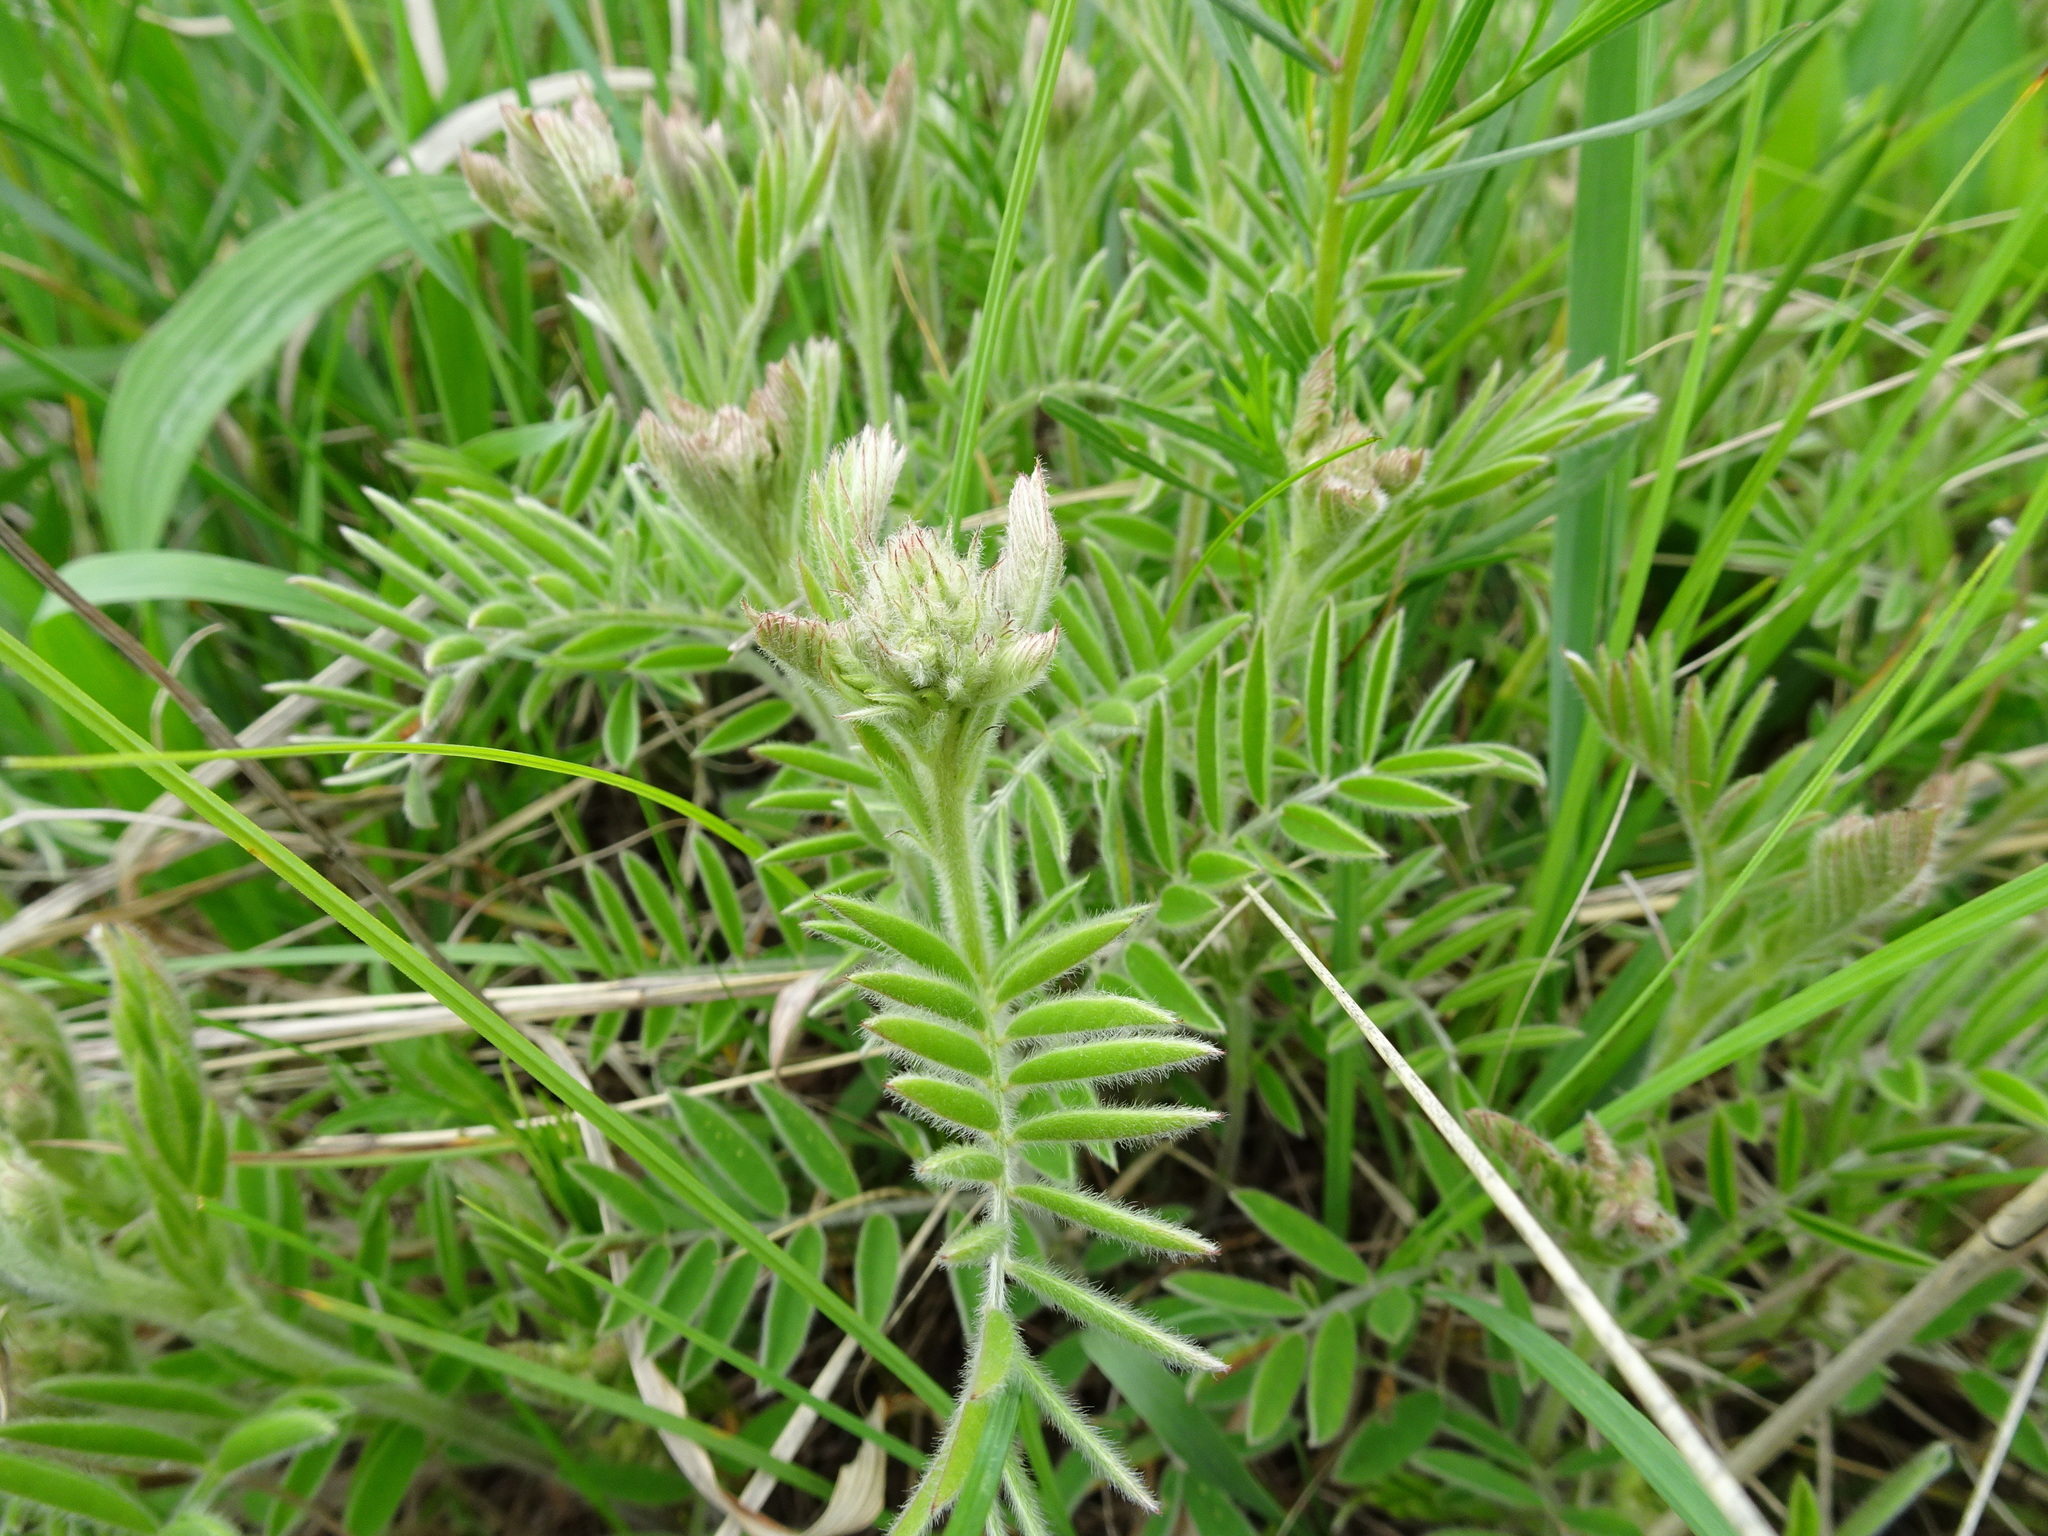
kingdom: Plantae
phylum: Tracheophyta
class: Magnoliopsida
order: Fabales
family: Fabaceae
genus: Tephrosia
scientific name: Tephrosia virginiana
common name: Rabbit-pea
